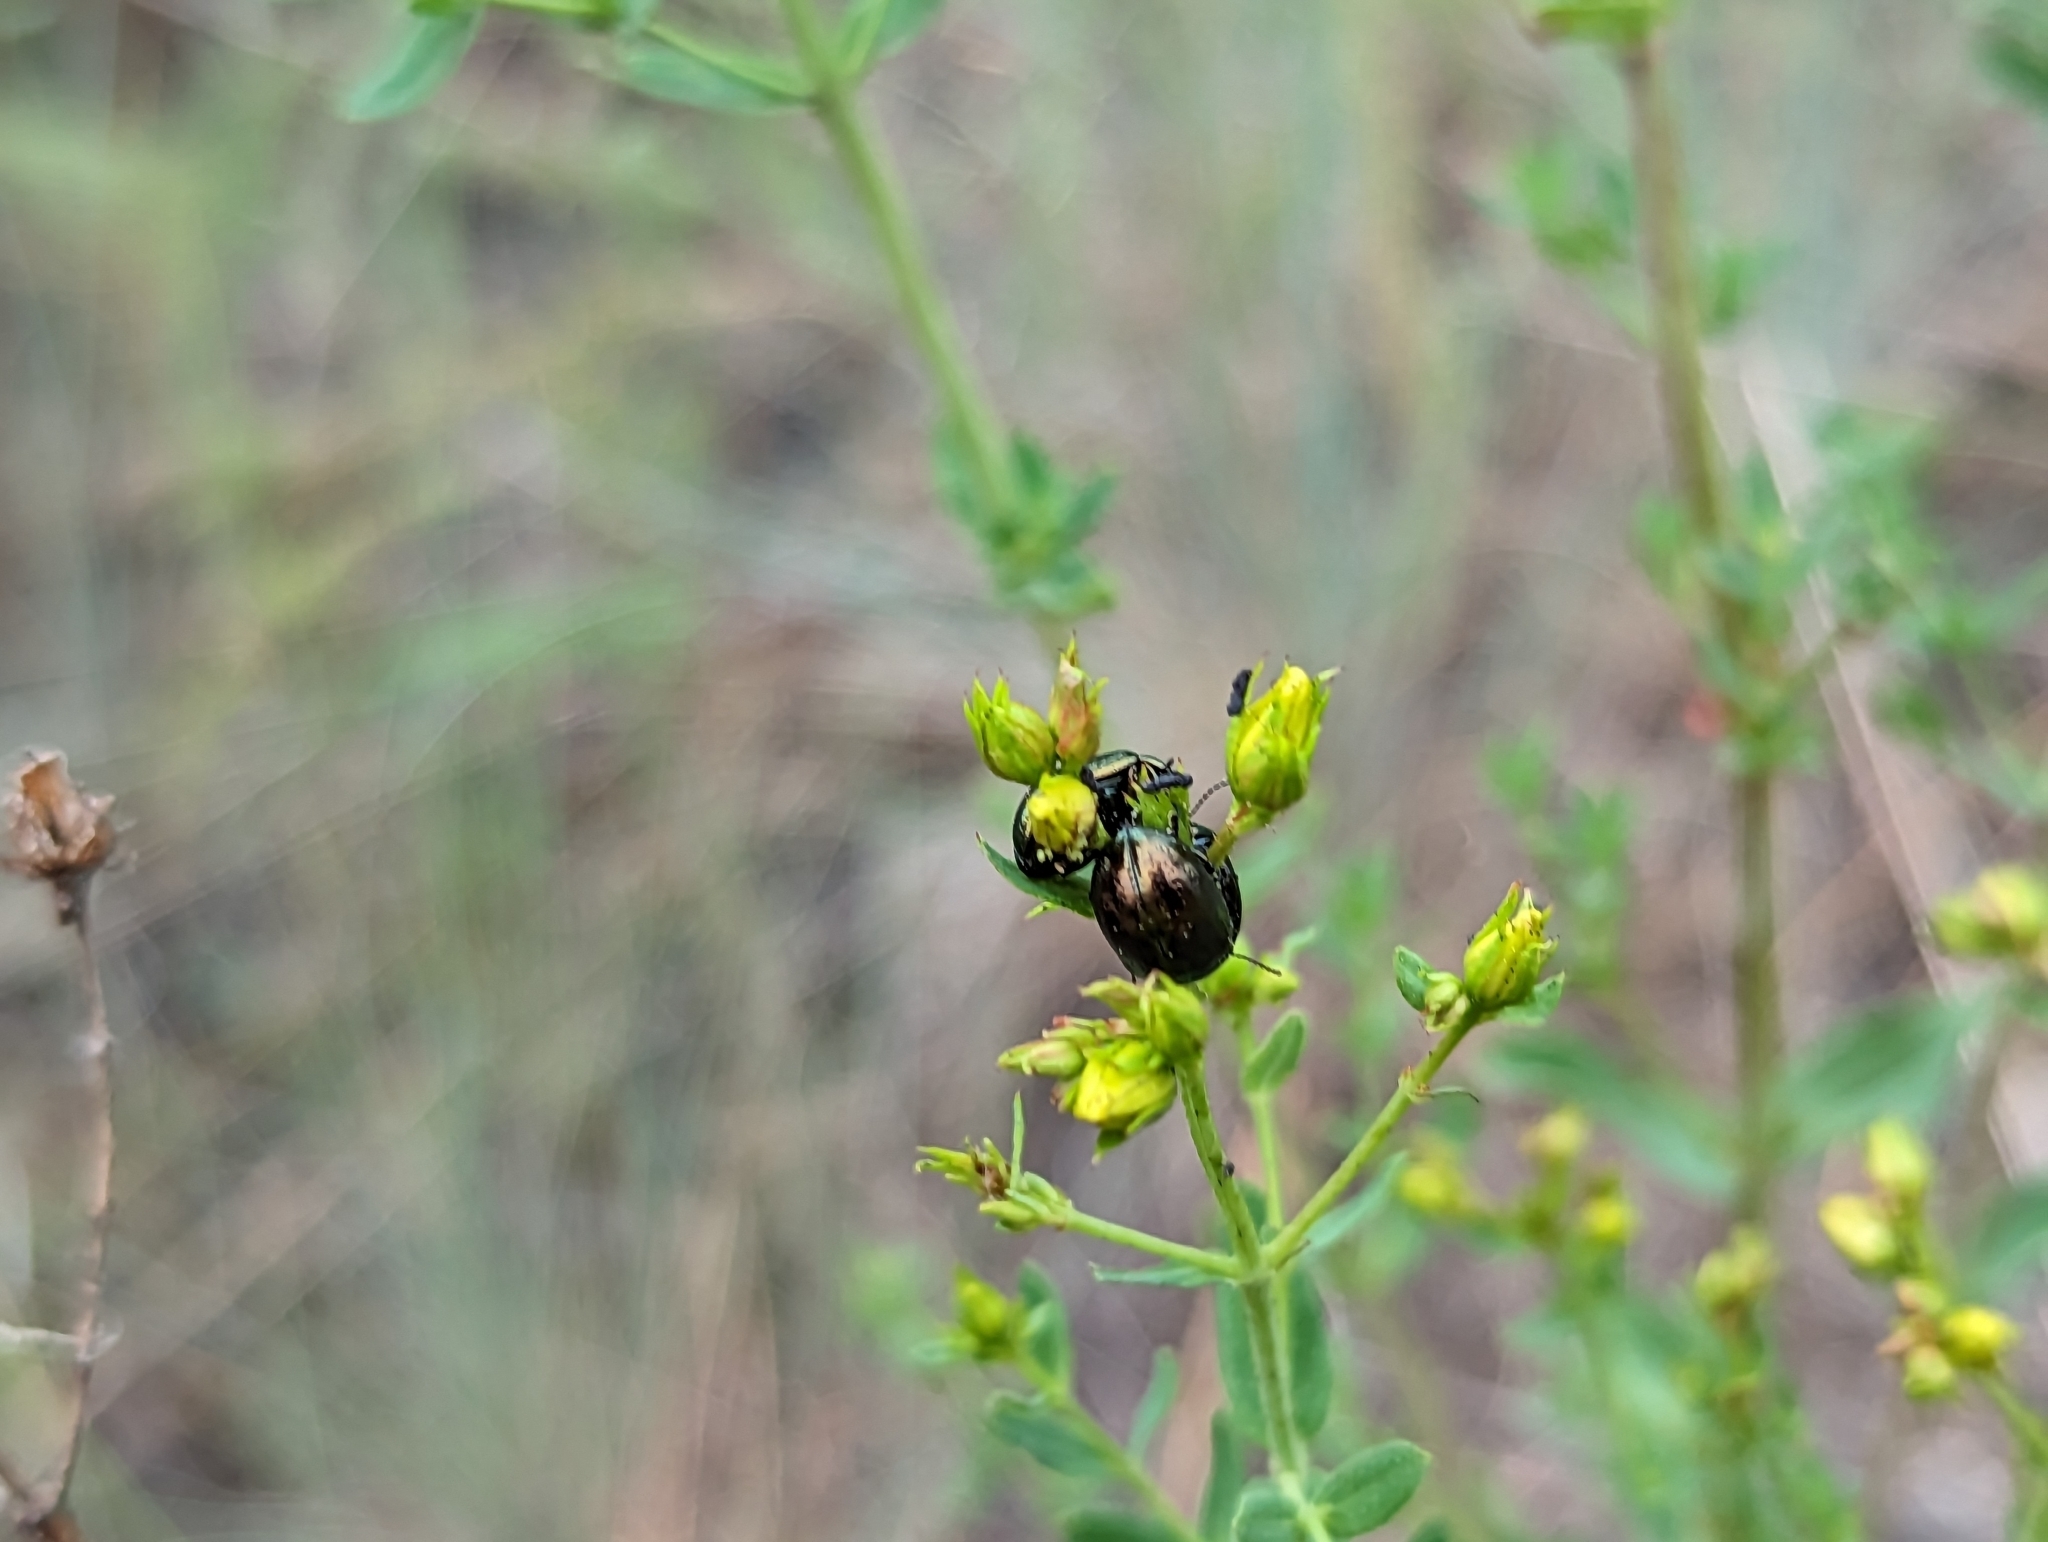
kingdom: Animalia
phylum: Arthropoda
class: Insecta
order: Coleoptera
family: Chrysomelidae
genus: Chrysolina
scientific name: Chrysolina hyperici
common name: St. johnswort beetle
